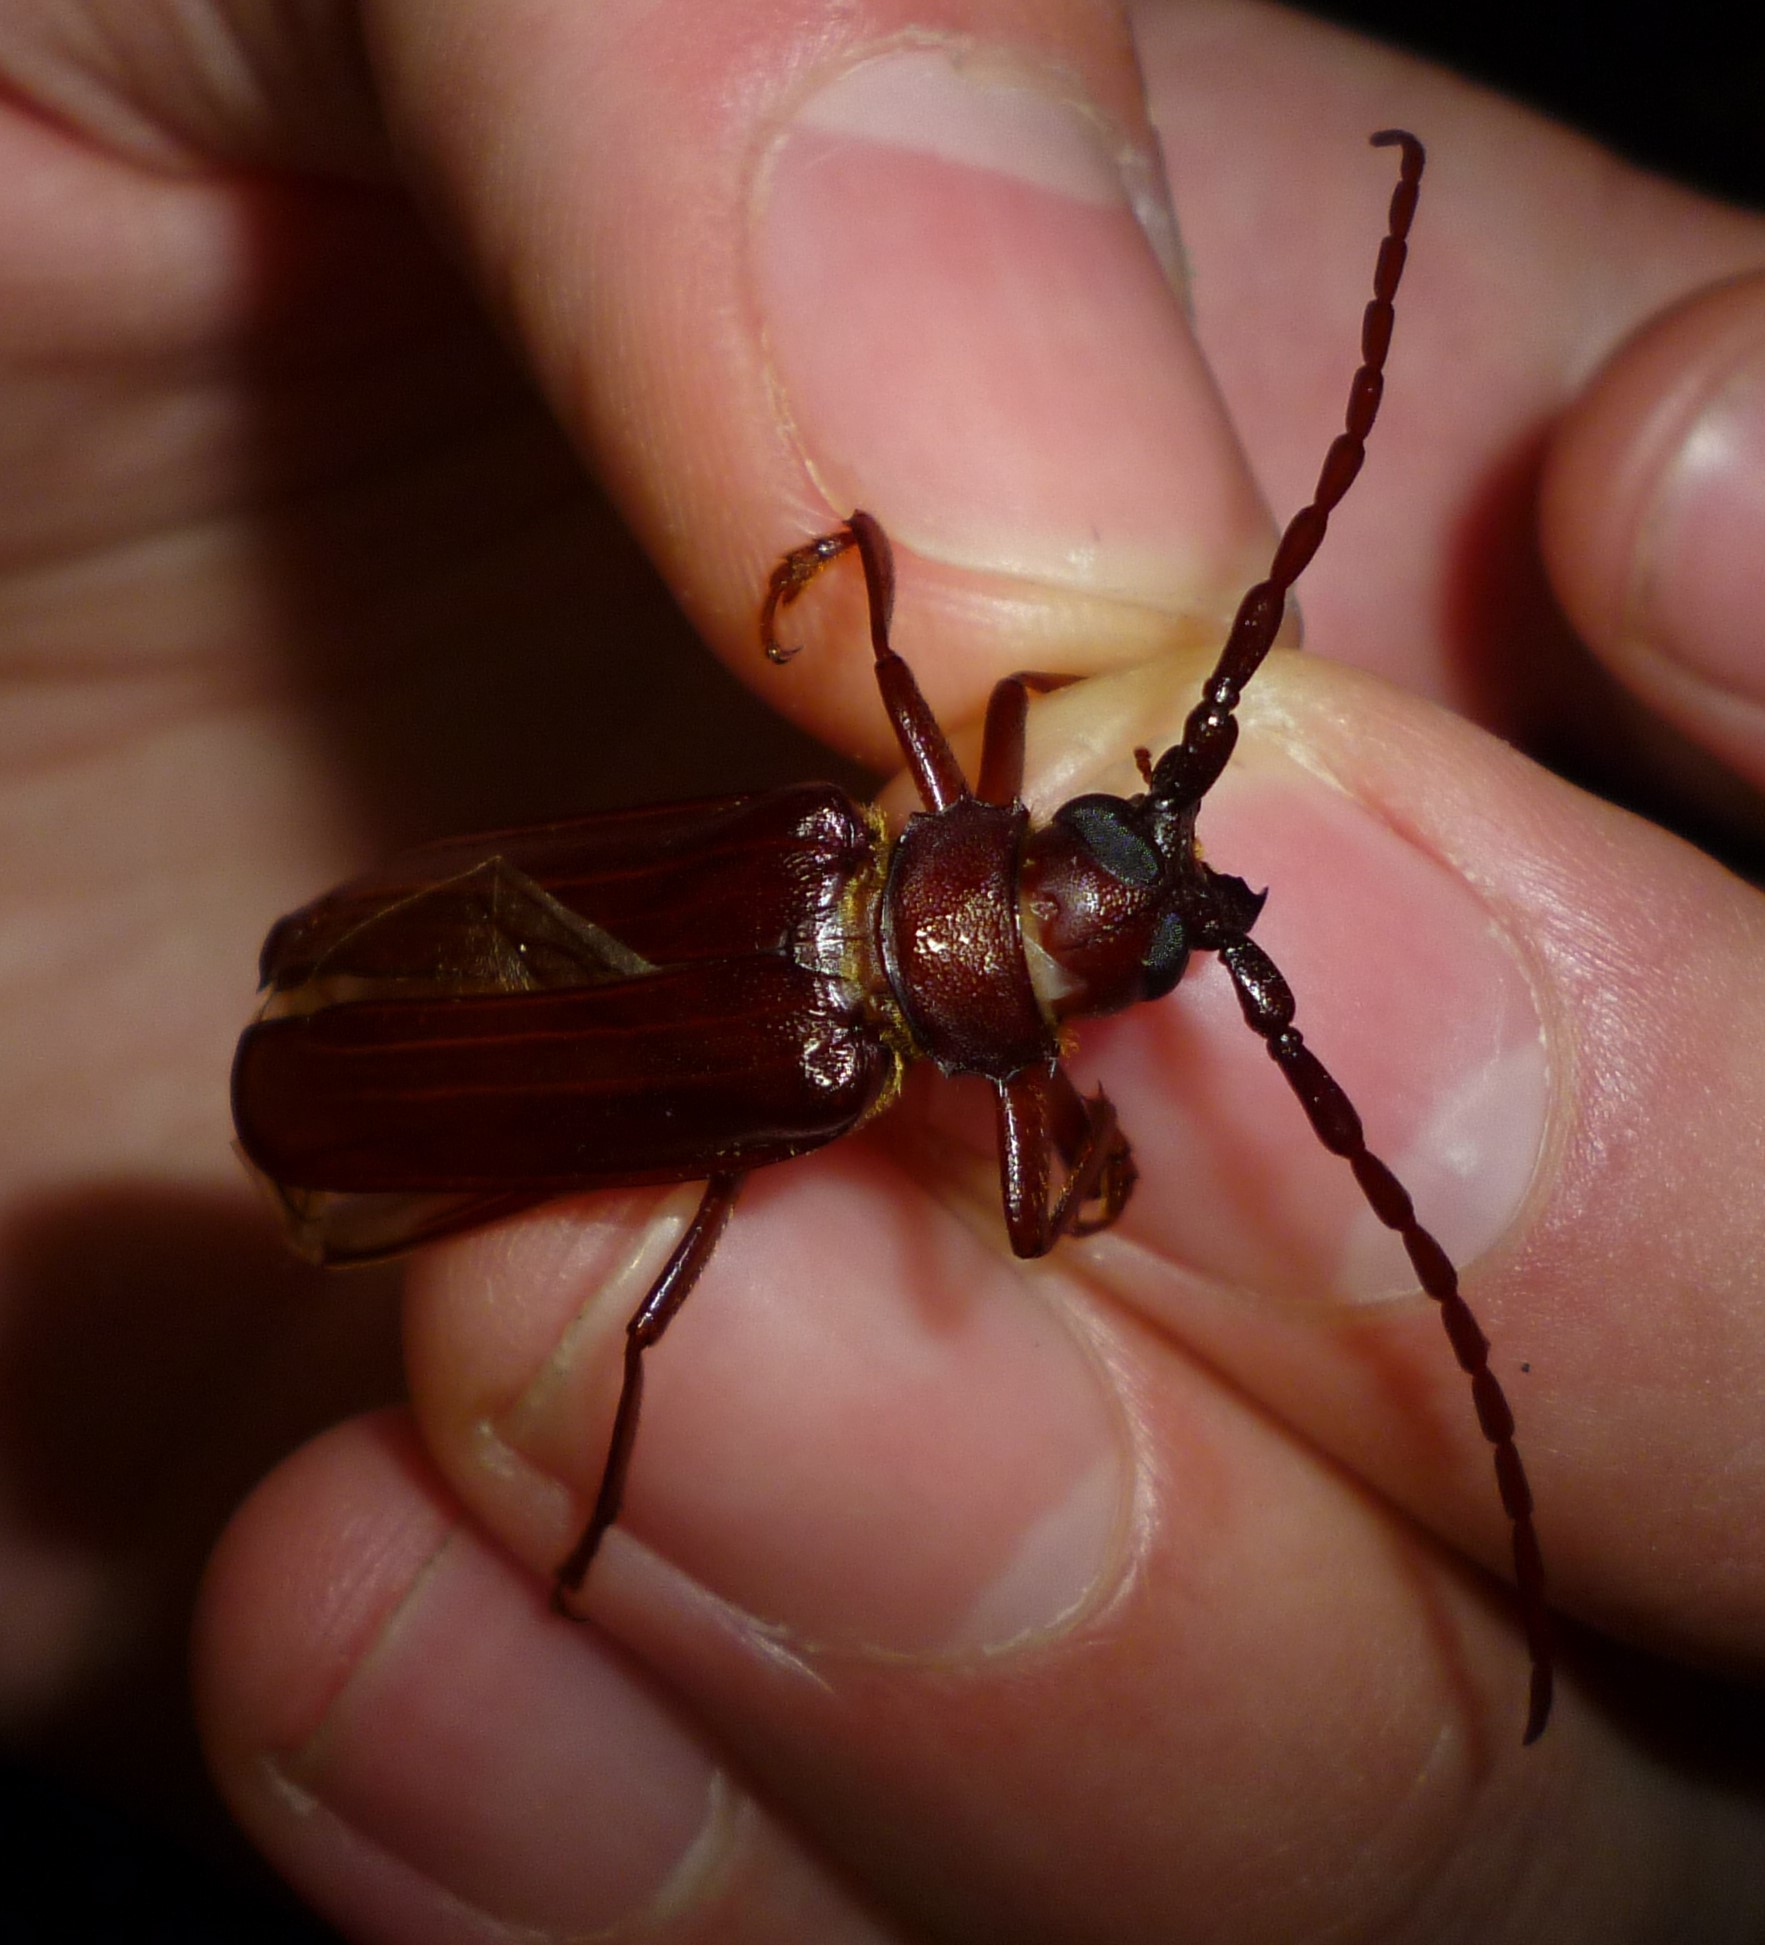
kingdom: Animalia
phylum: Arthropoda
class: Insecta
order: Coleoptera
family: Cerambycidae
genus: Orthosoma
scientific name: Orthosoma brunneum
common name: Brown prionid beetle
